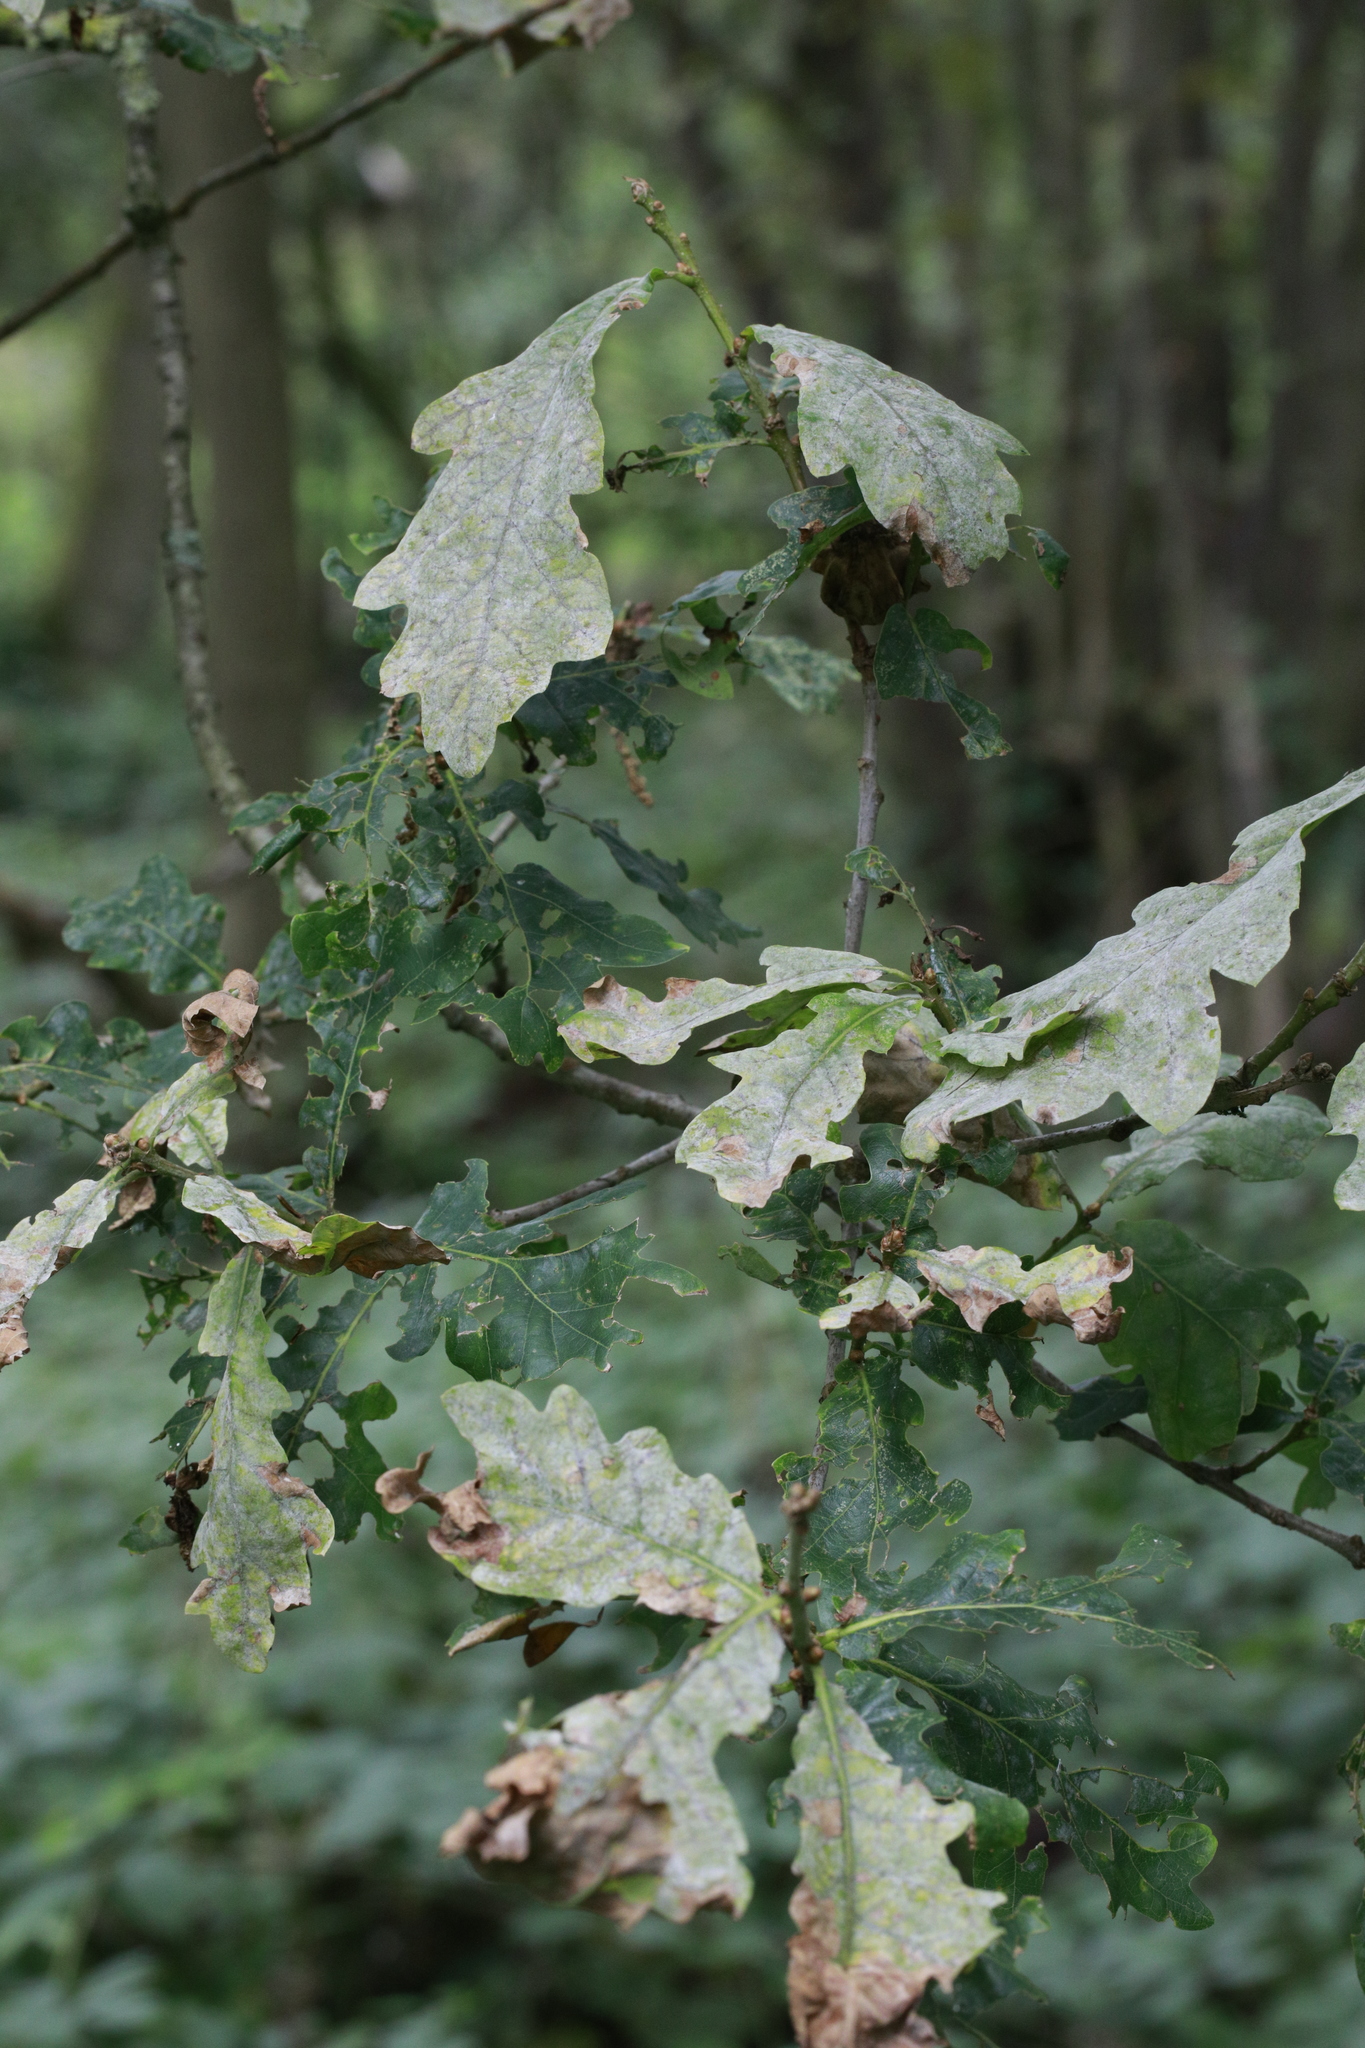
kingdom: Fungi
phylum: Ascomycota
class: Leotiomycetes
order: Helotiales
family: Erysiphaceae
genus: Erysiphe
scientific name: Erysiphe alphitoides
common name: Oak mildew
